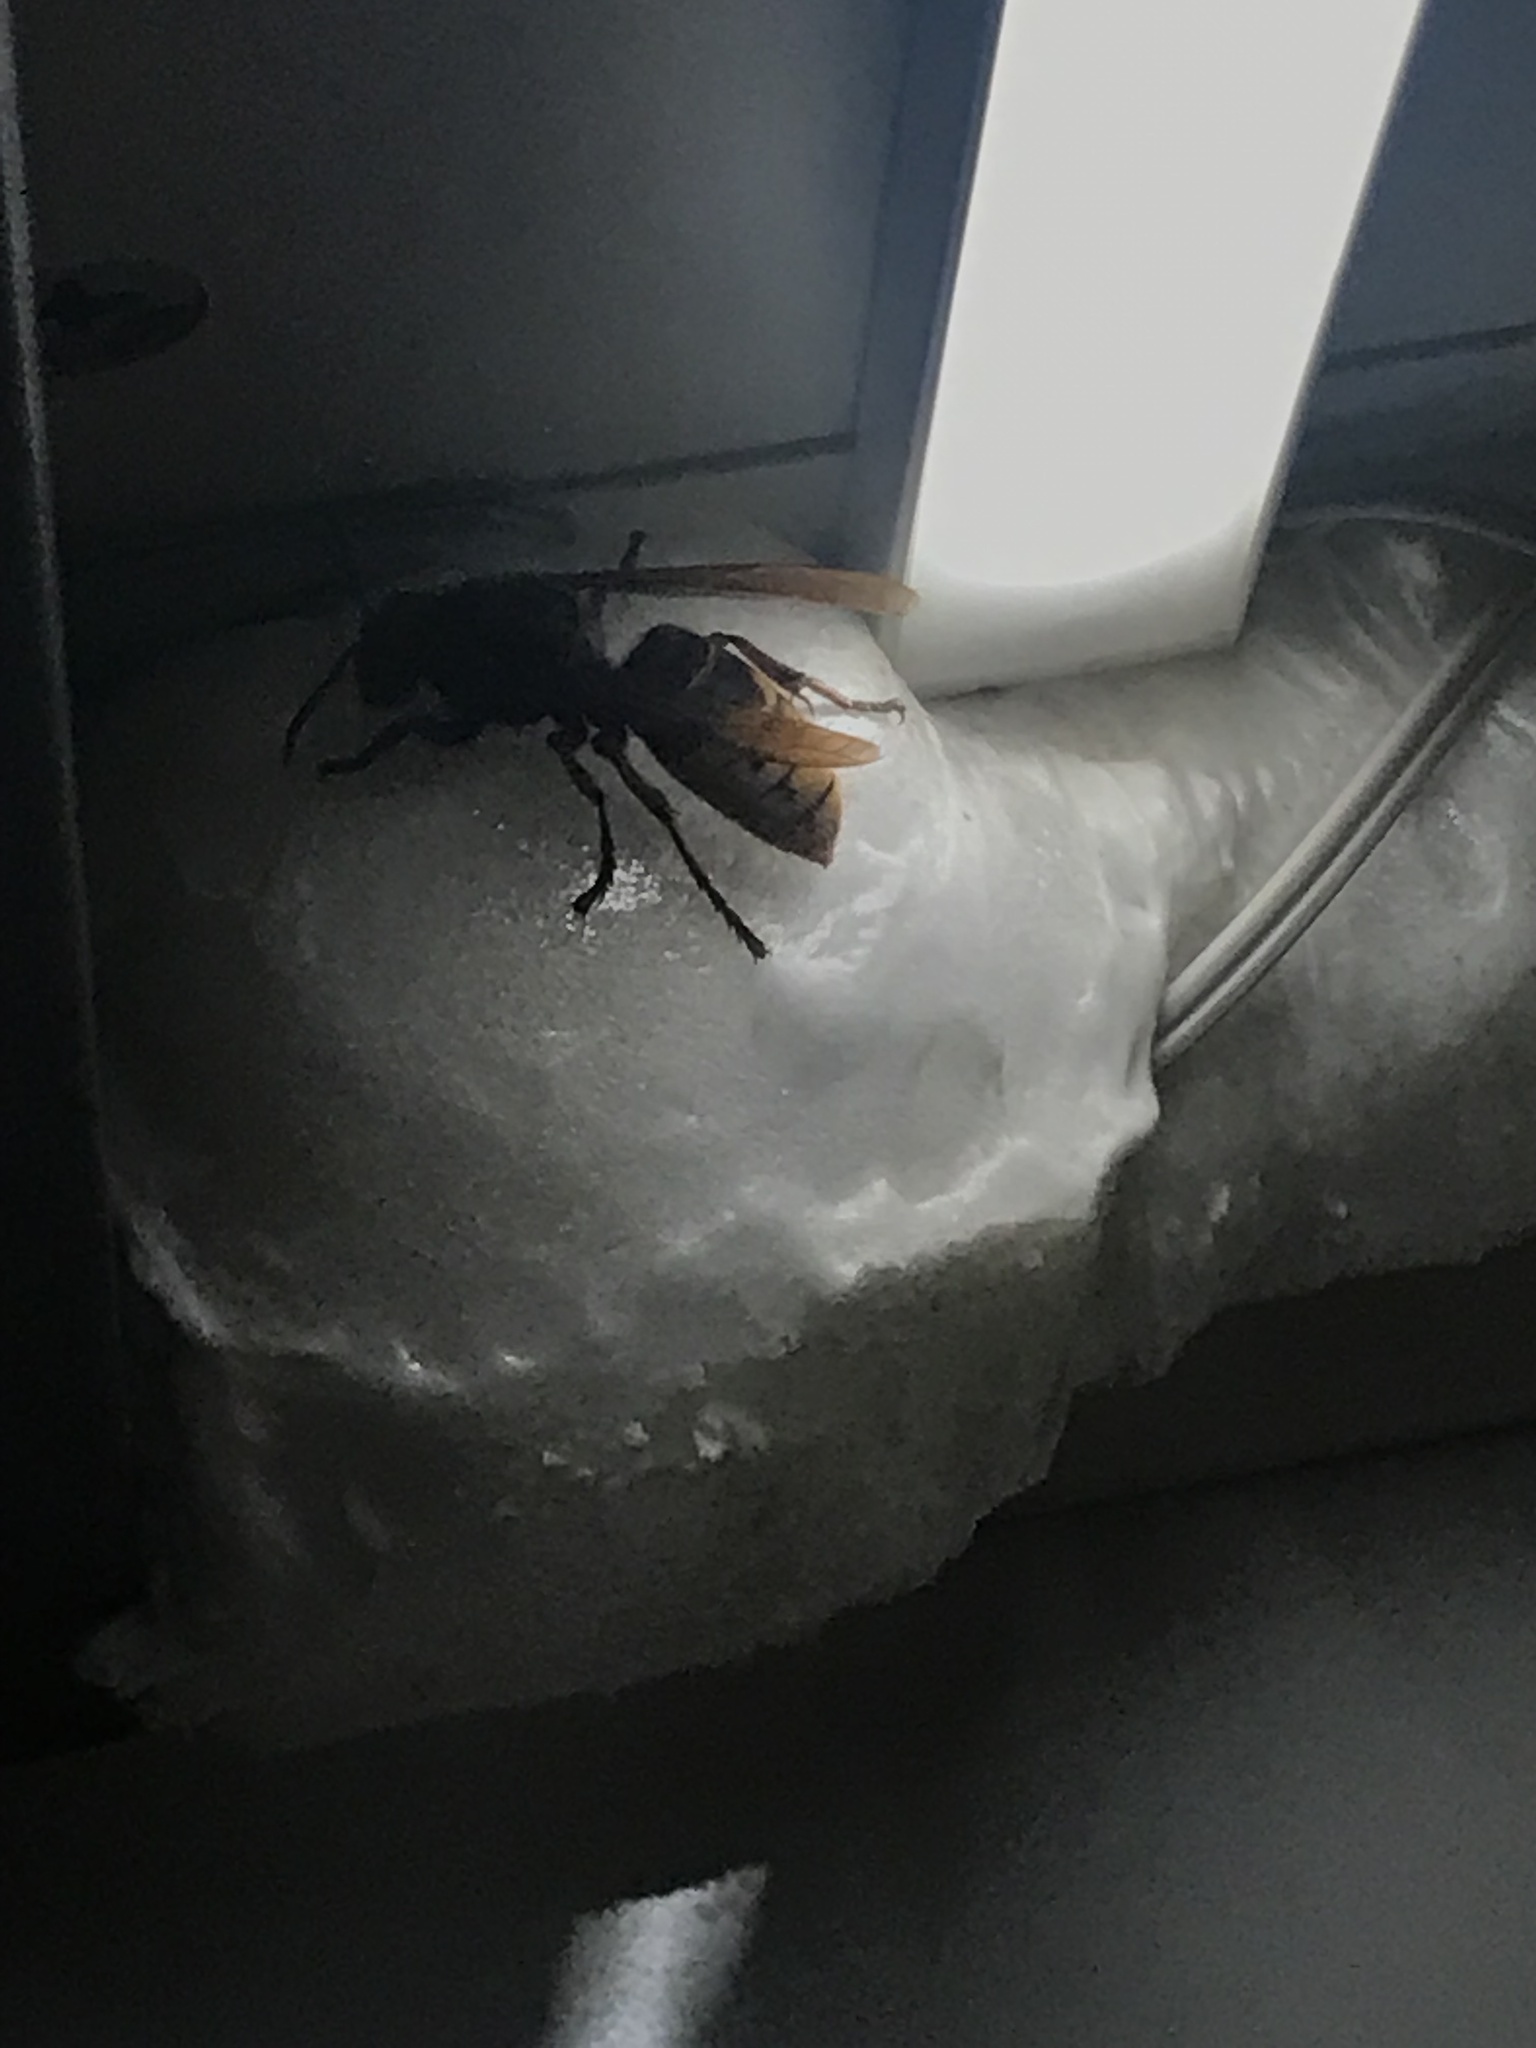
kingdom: Animalia
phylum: Arthropoda
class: Insecta
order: Hymenoptera
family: Vespidae
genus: Vespa
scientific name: Vespa crabro
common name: Hornet
